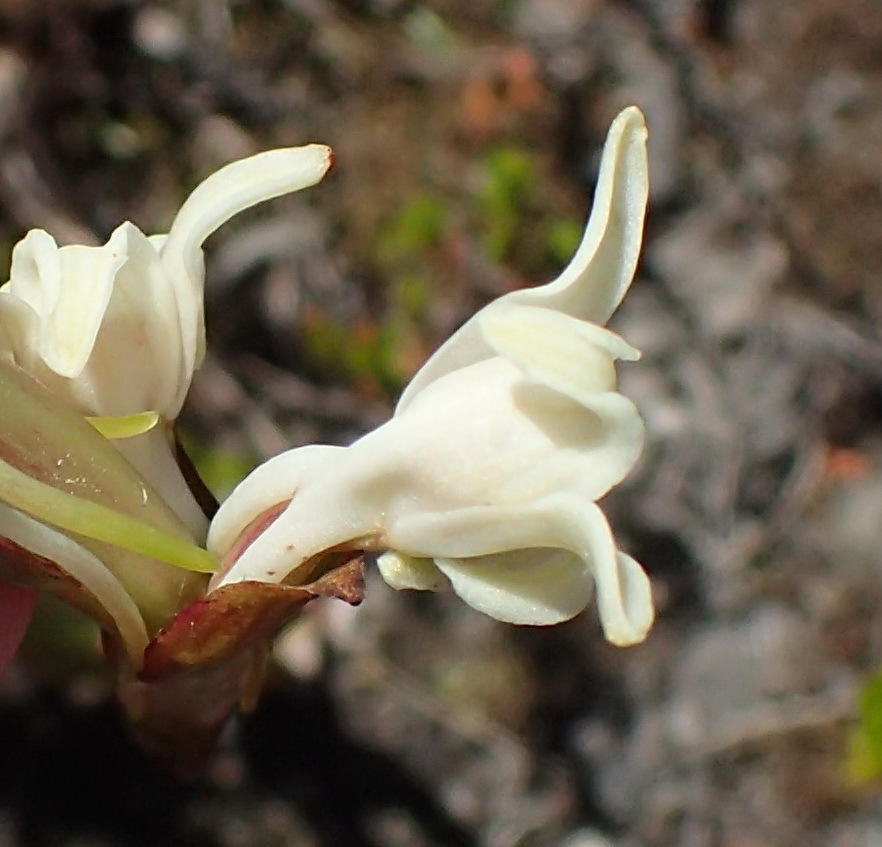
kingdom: Plantae
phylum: Tracheophyta
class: Liliopsida
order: Asparagales
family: Orchidaceae
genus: Satyrium
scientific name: Satyrium stenopetalum
